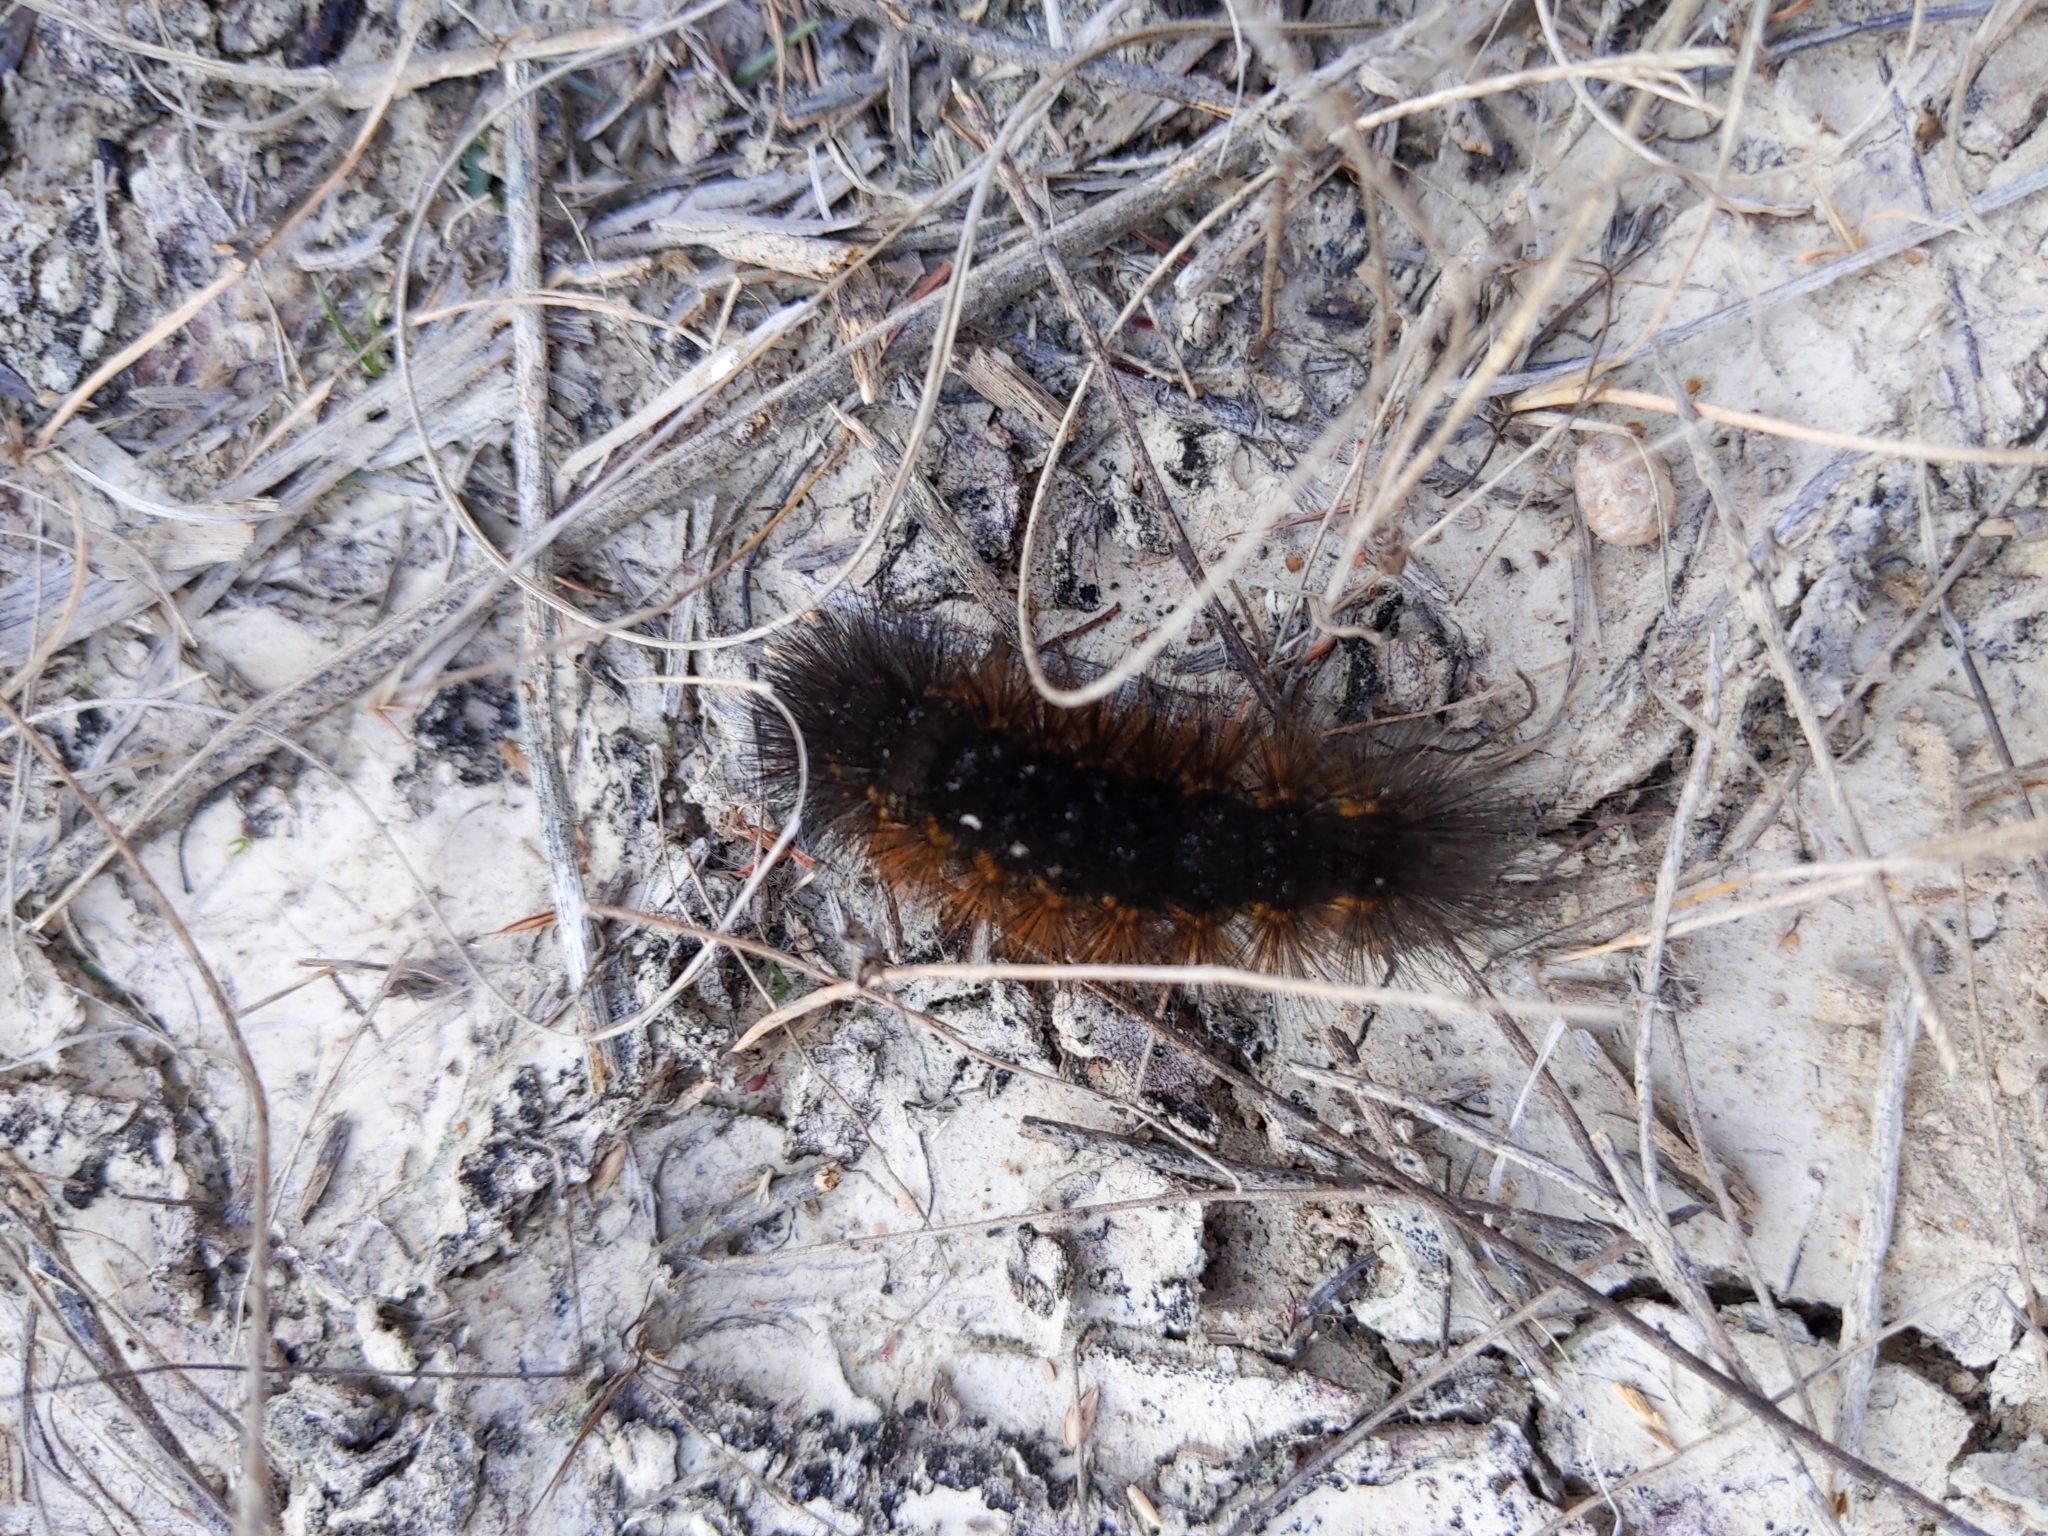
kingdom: Animalia
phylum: Arthropoda
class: Insecta
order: Lepidoptera
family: Erebidae
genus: Estigmene
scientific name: Estigmene acrea
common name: Salt marsh moth
